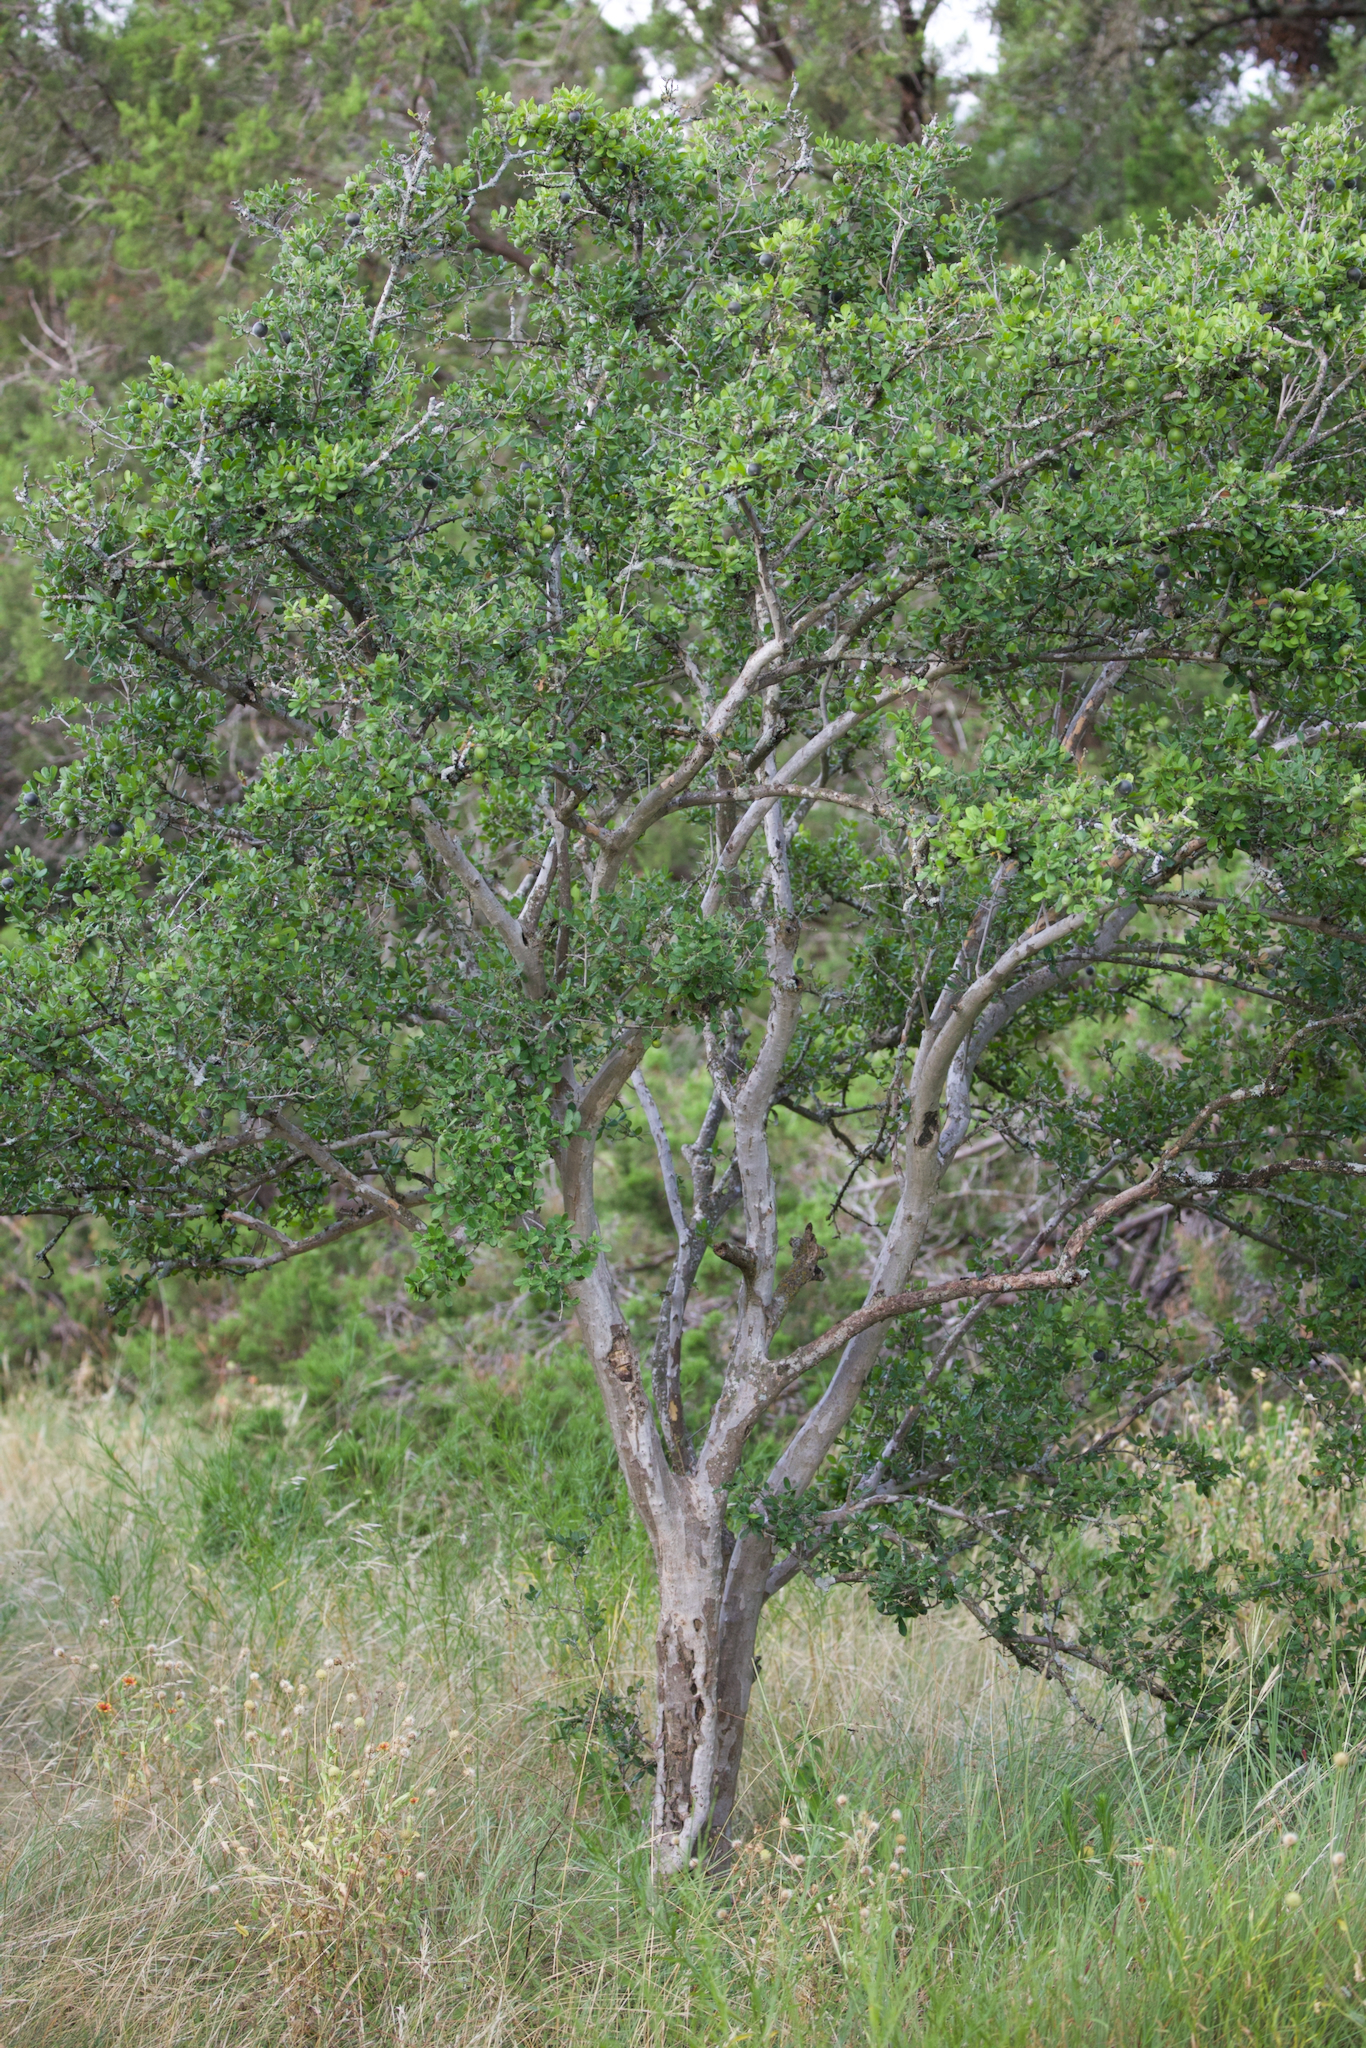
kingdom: Plantae
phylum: Tracheophyta
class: Magnoliopsida
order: Ericales
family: Ebenaceae
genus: Diospyros
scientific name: Diospyros texana
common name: Texas persimmon
